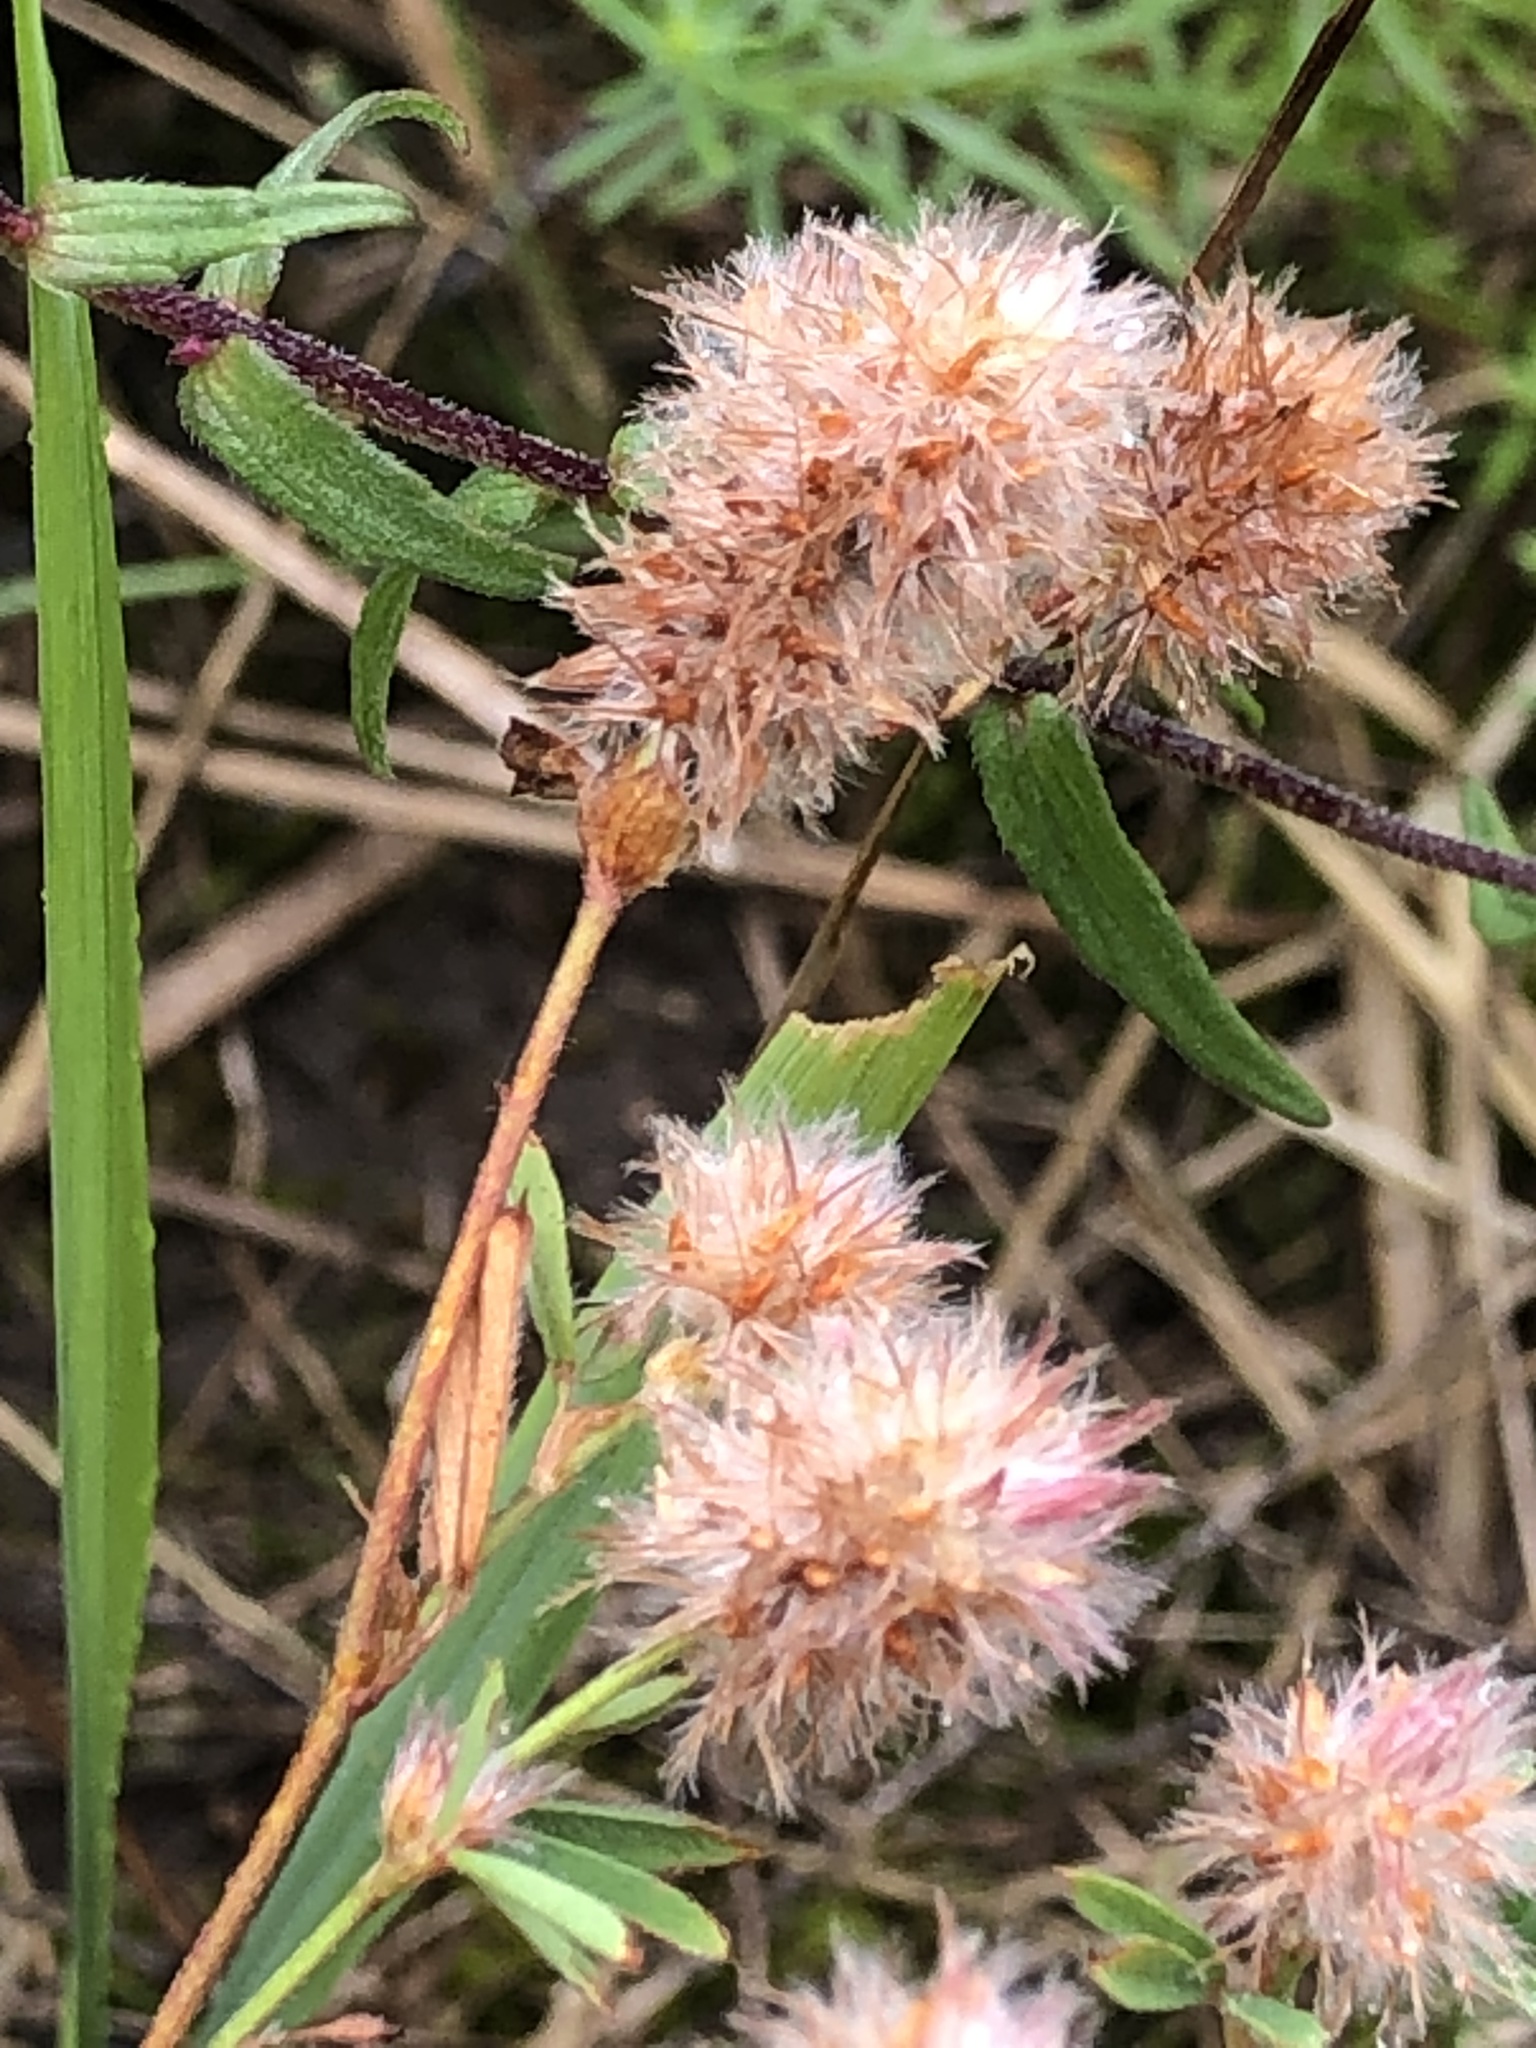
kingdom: Plantae
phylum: Tracheophyta
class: Magnoliopsida
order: Fabales
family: Fabaceae
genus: Trifolium
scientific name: Trifolium arvense
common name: Hare's-foot clover
